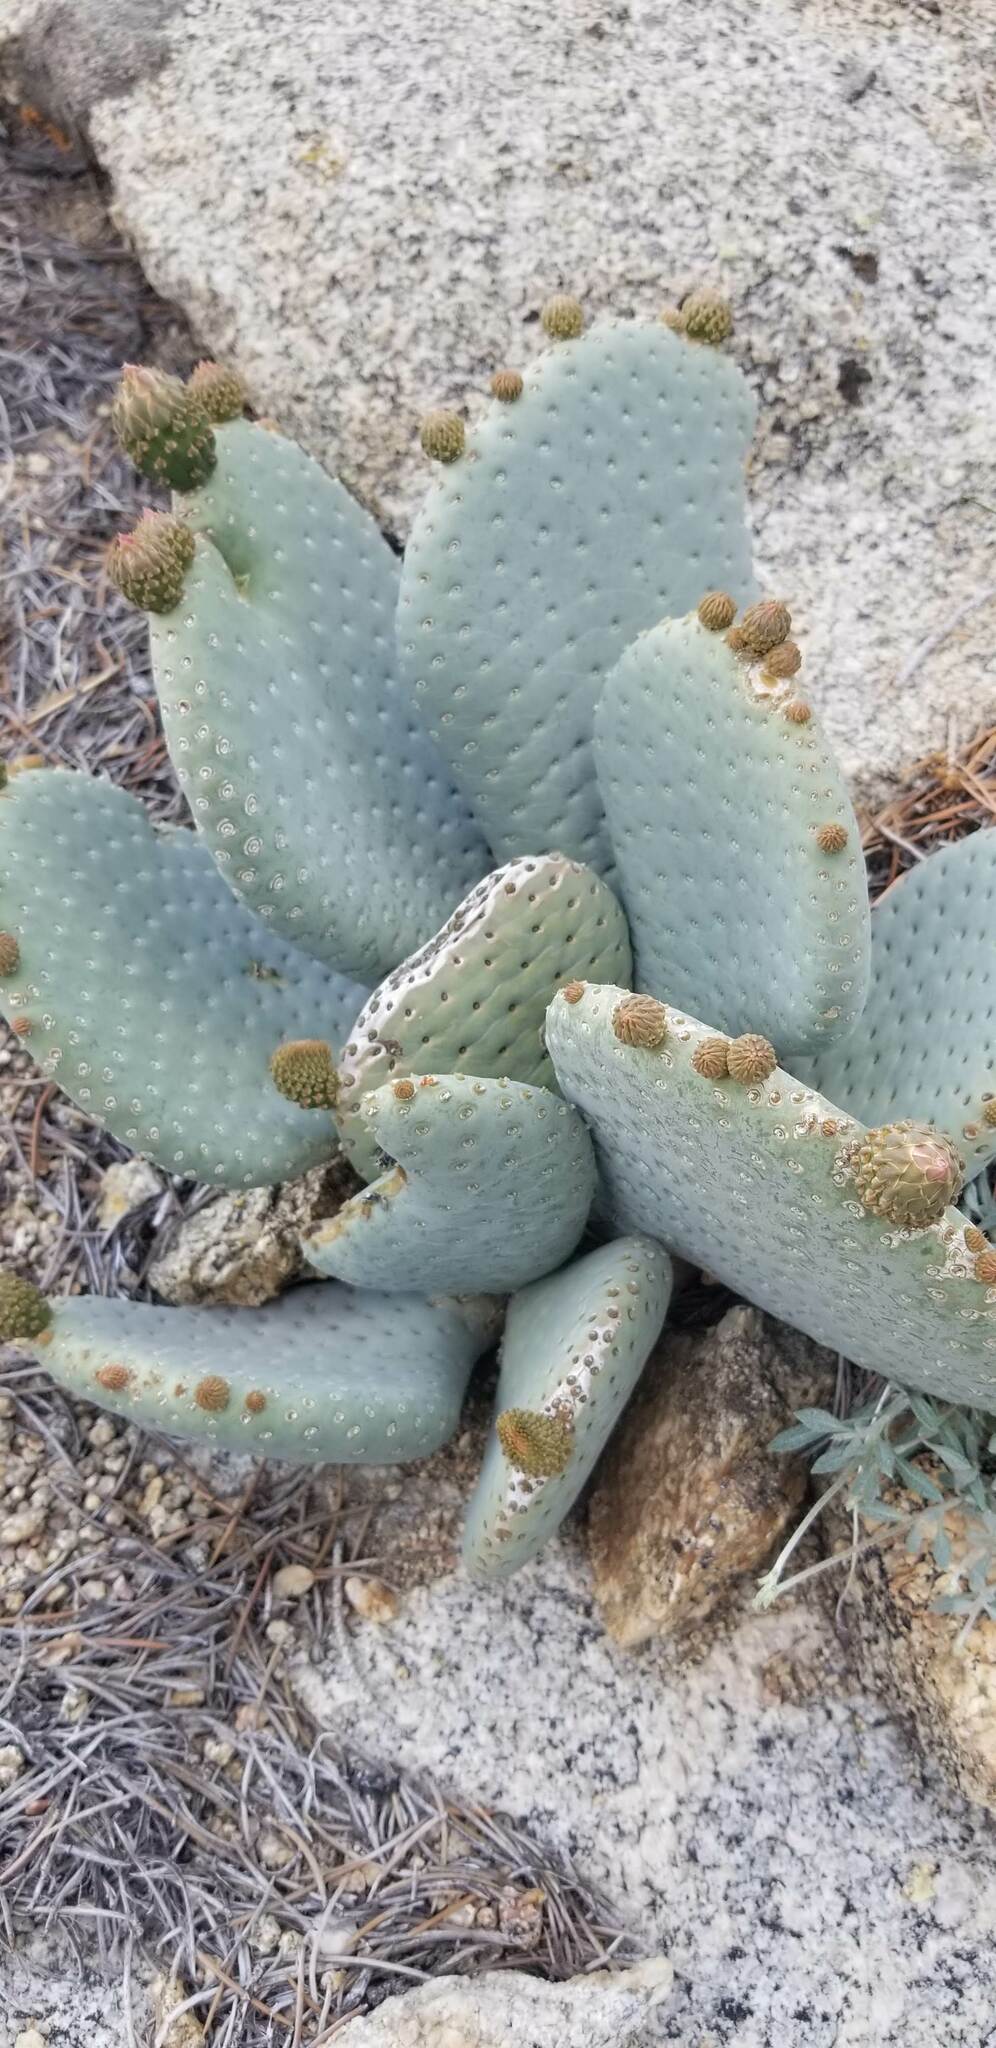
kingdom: Plantae
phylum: Tracheophyta
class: Magnoliopsida
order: Caryophyllales
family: Cactaceae
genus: Opuntia
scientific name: Opuntia basilaris
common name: Beavertail prickly-pear
